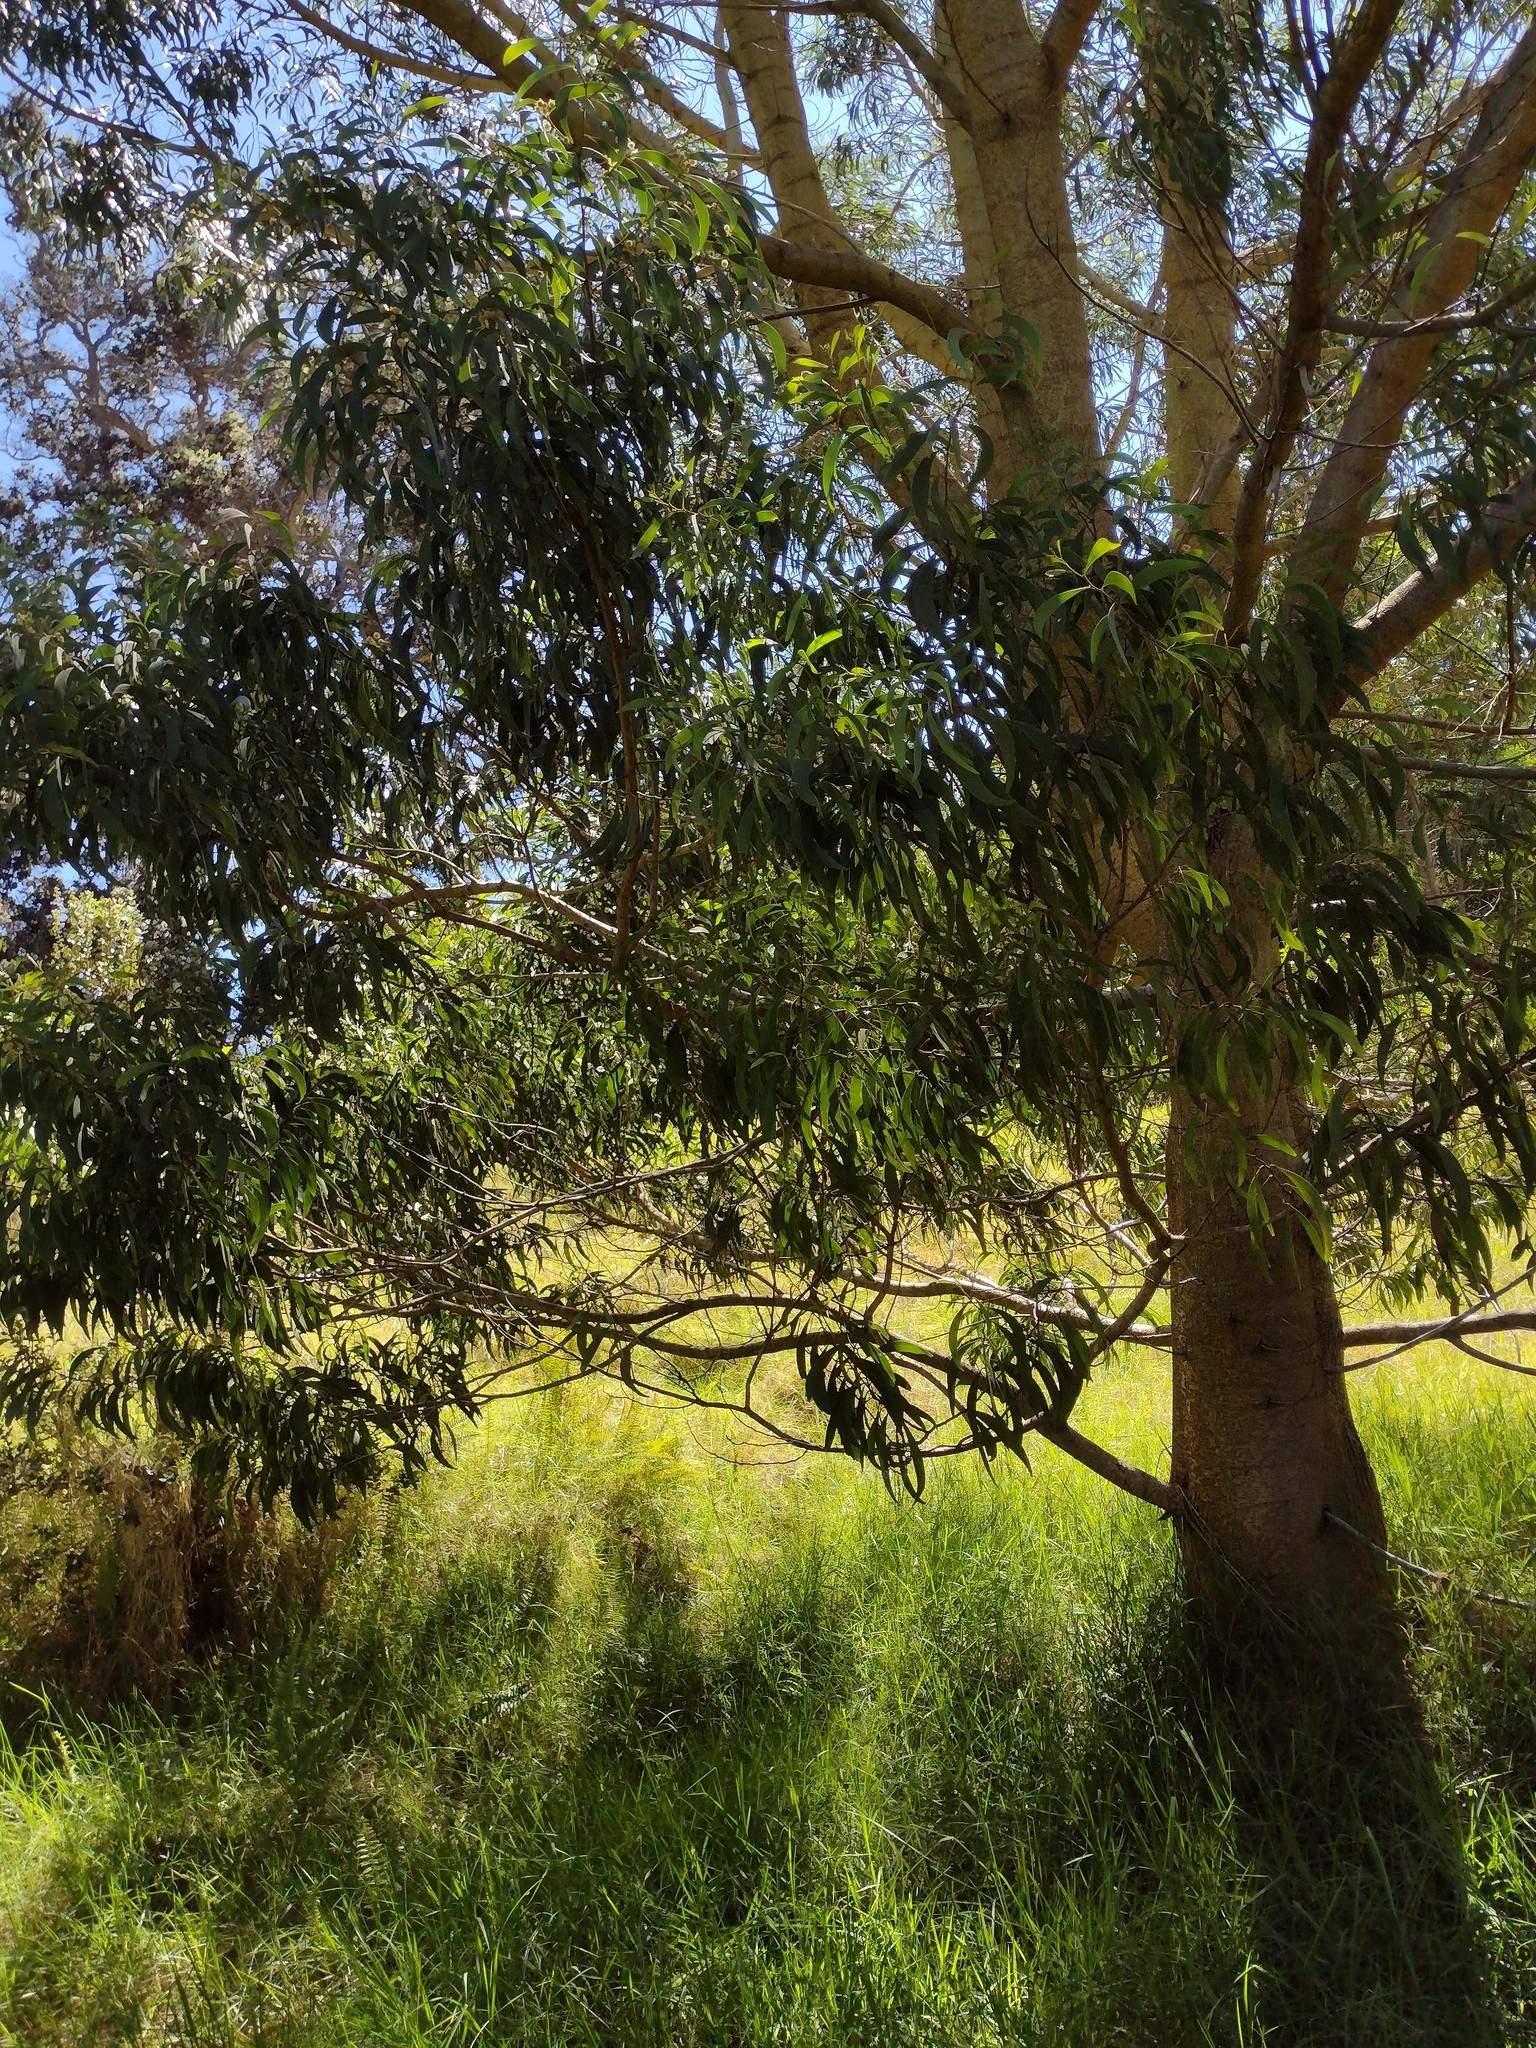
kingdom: Plantae
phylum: Tracheophyta
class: Magnoliopsida
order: Fabales
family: Fabaceae
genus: Acacia
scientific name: Acacia koa
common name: Gray koa
